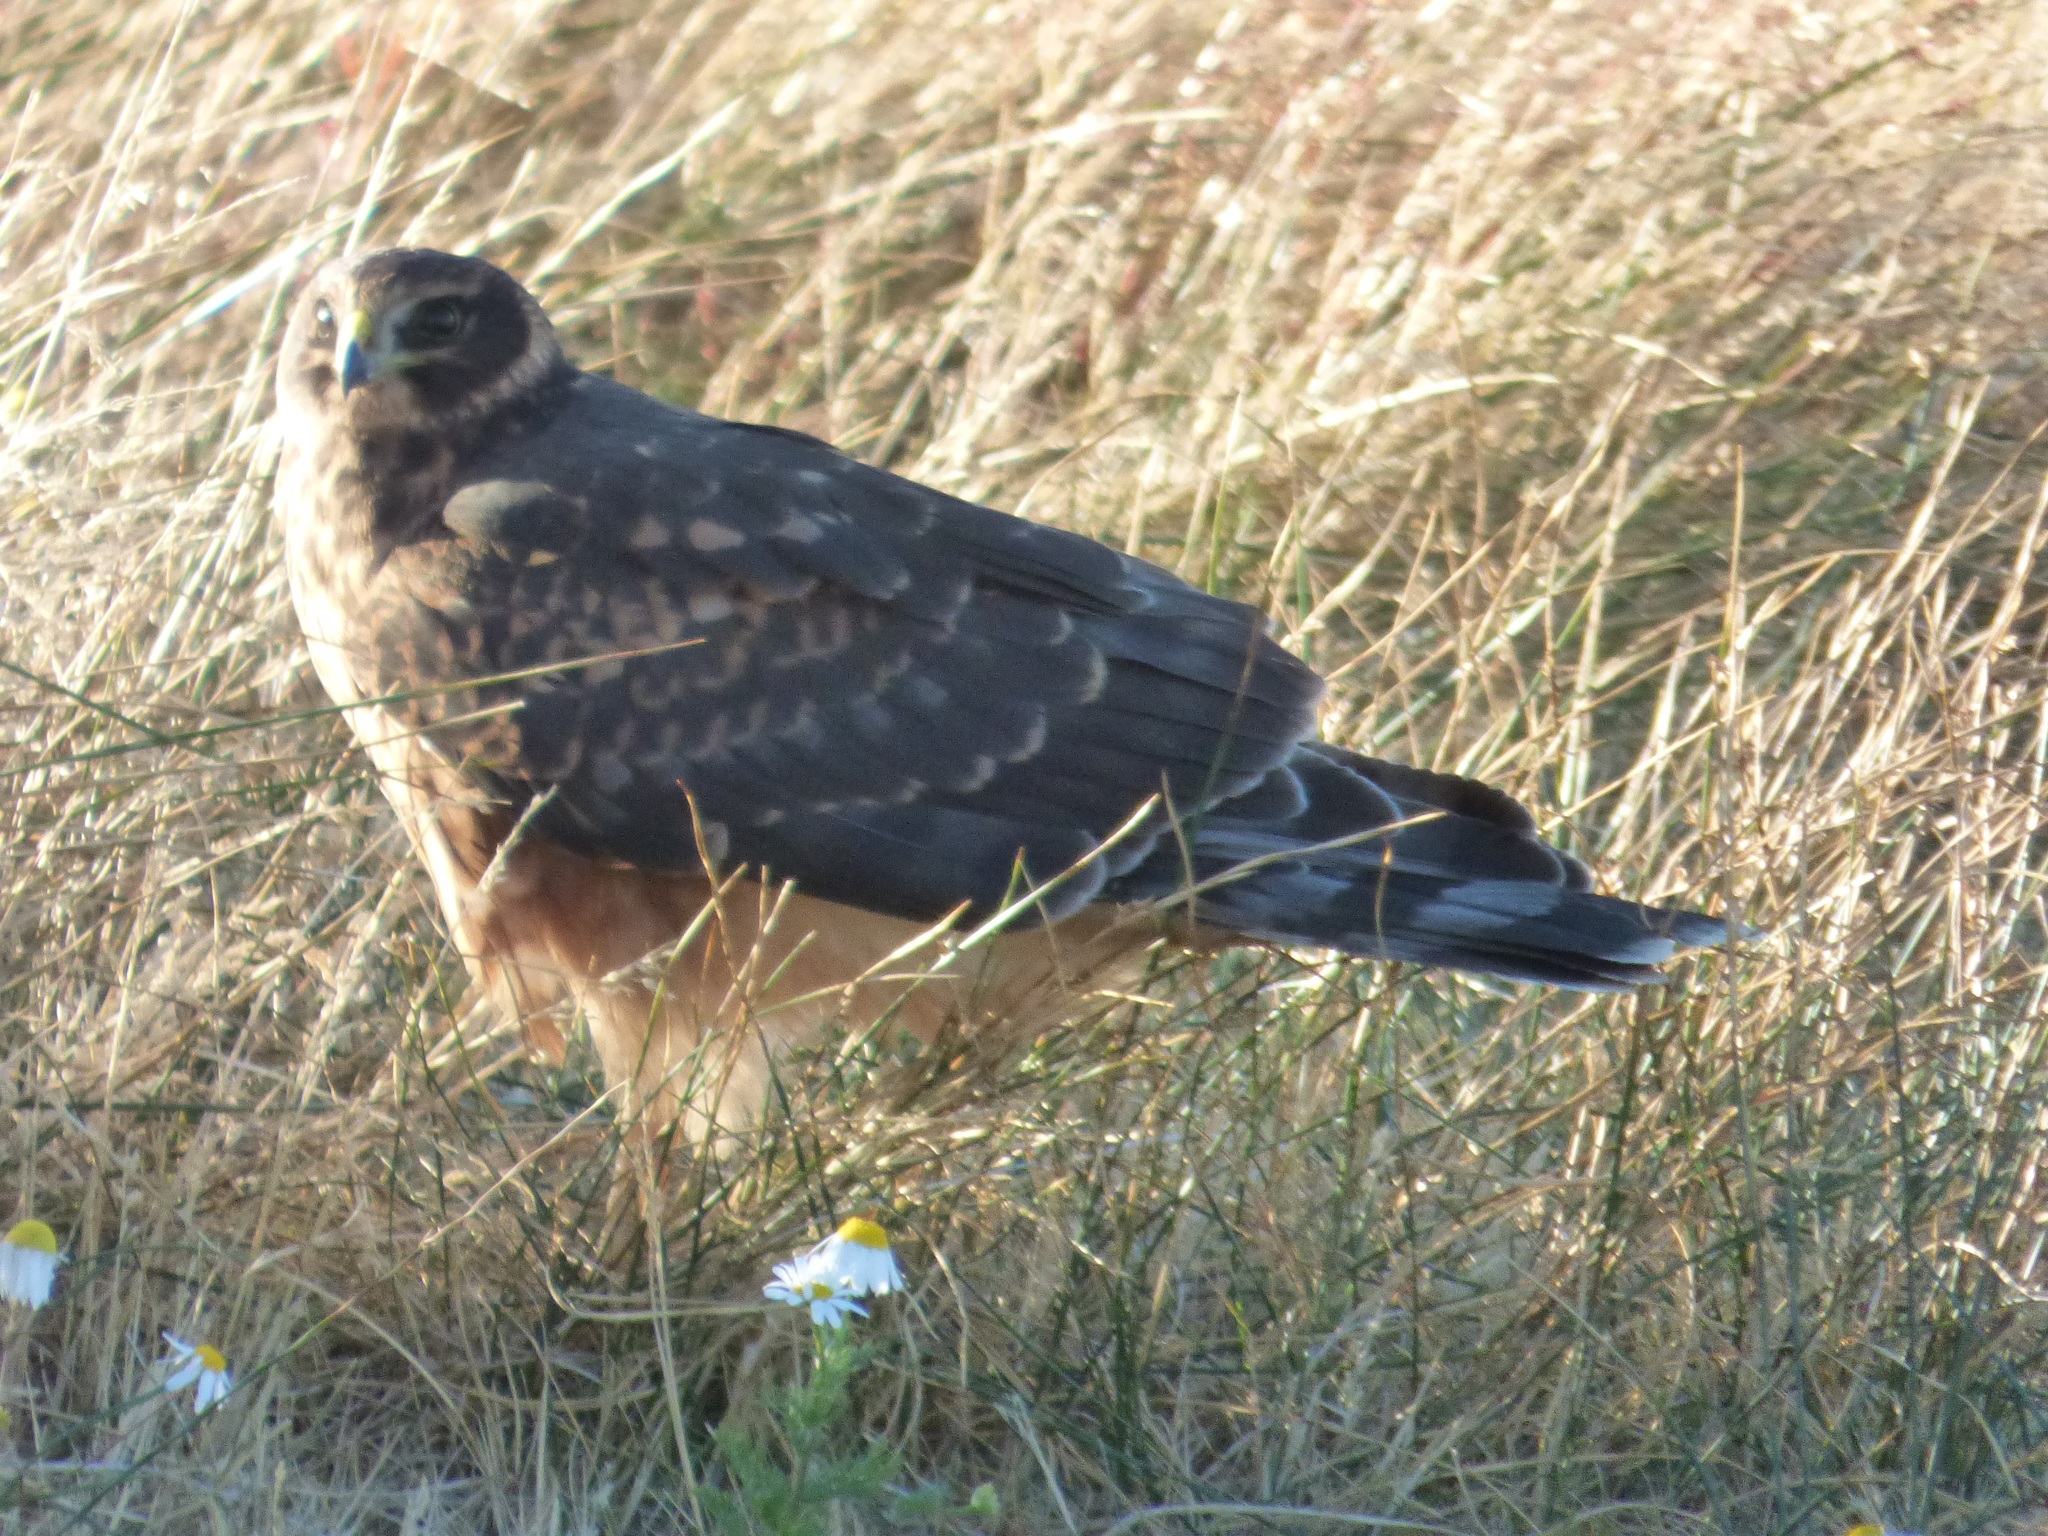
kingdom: Animalia
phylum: Chordata
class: Aves
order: Accipitriformes
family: Accipitridae
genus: Circus
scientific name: Circus cinereus
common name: Cinereous harrier
